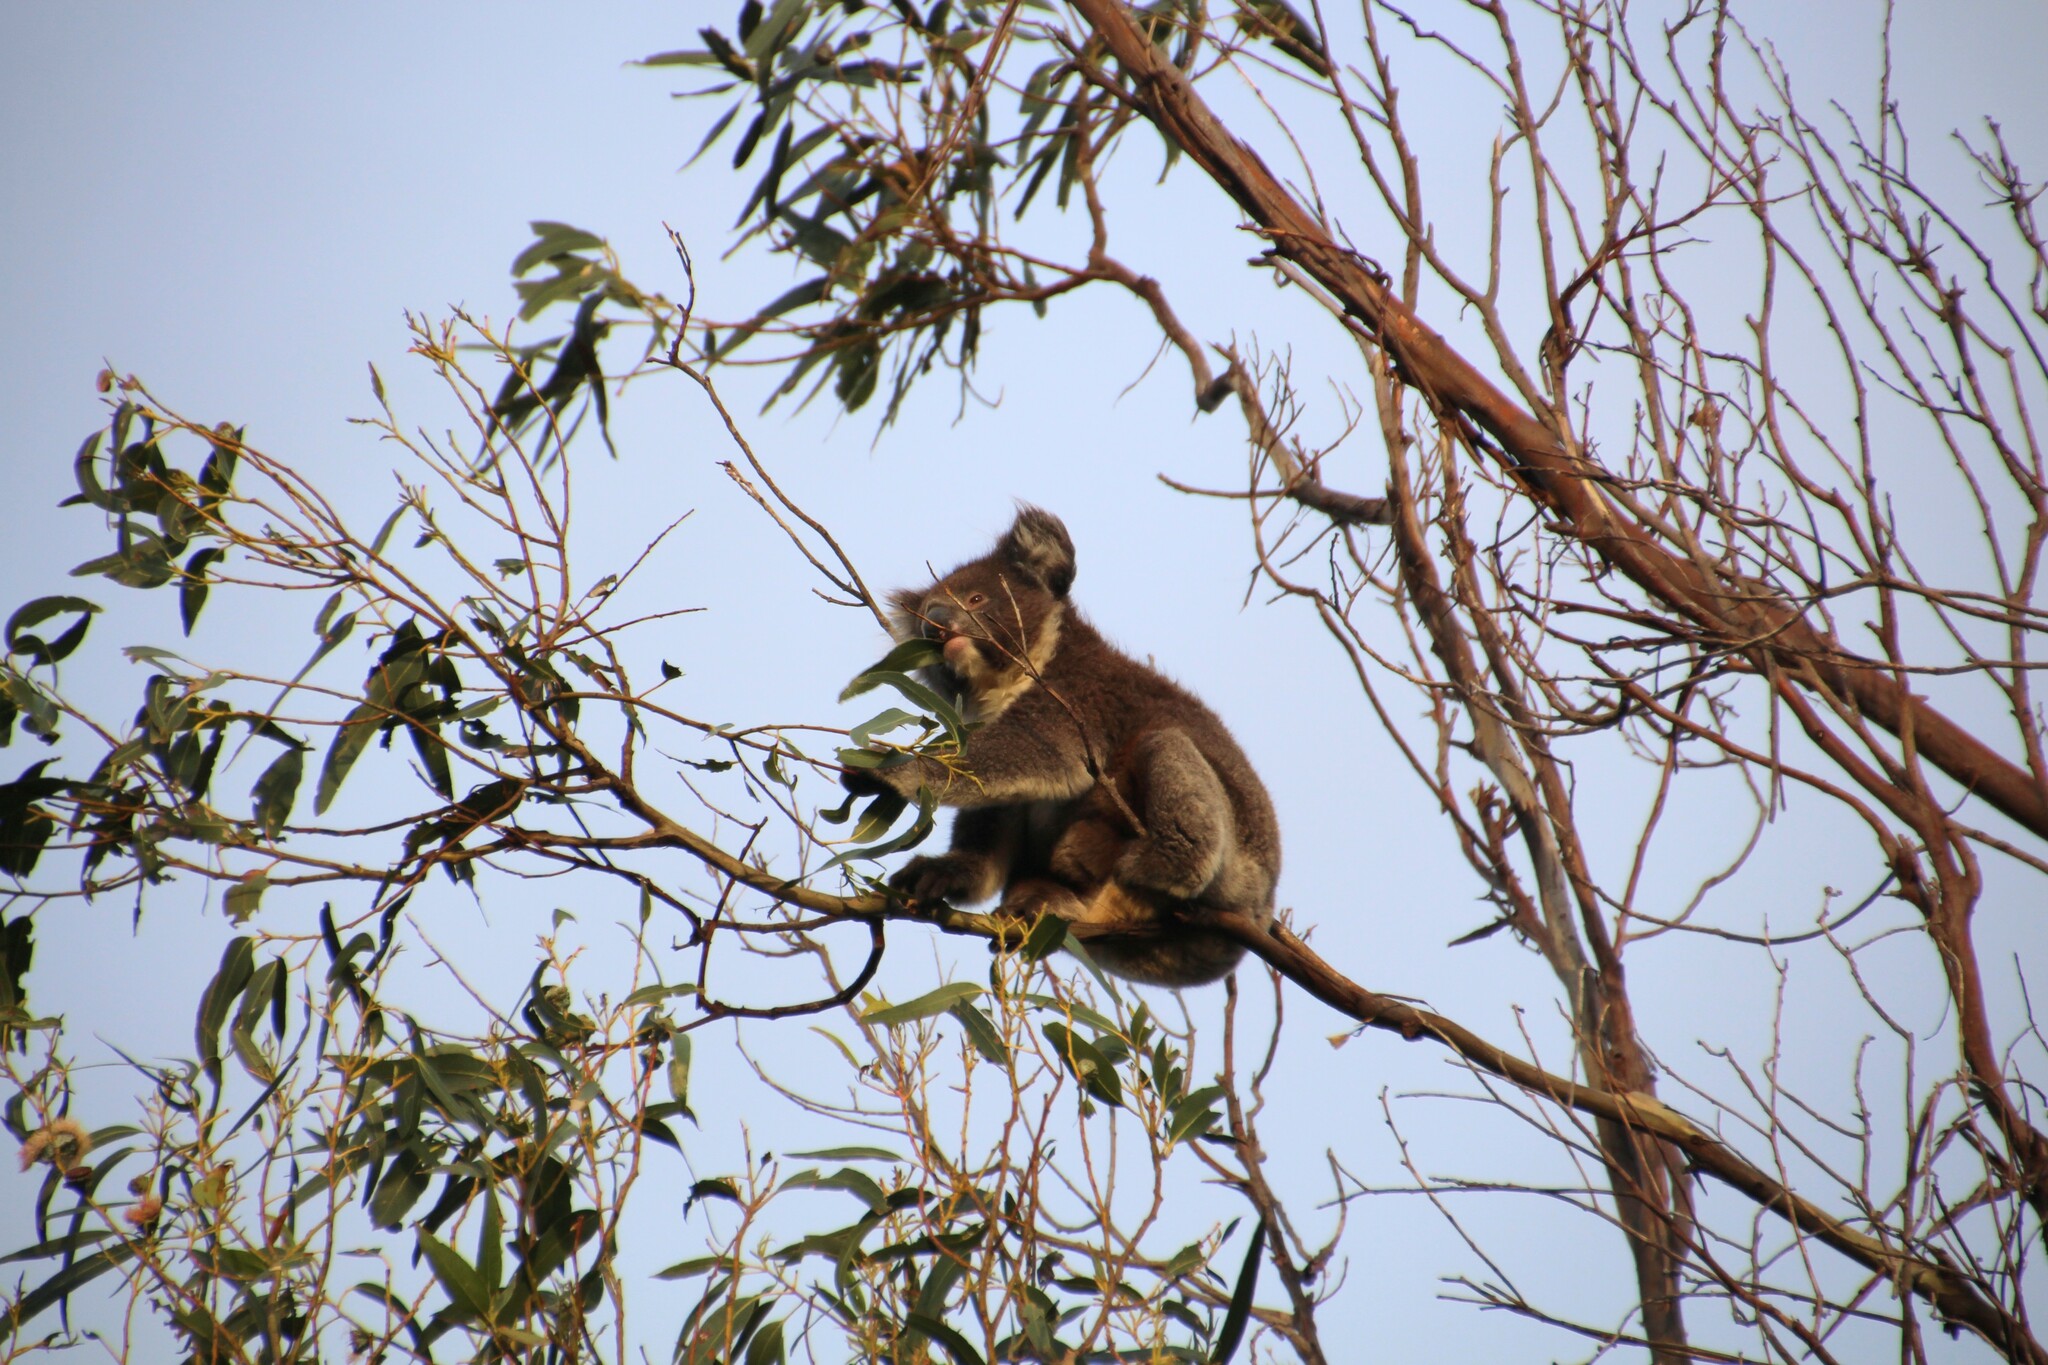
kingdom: Animalia
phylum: Chordata
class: Mammalia
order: Diprotodontia
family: Phascolarctidae
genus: Phascolarctos
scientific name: Phascolarctos cinereus
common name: Koala
